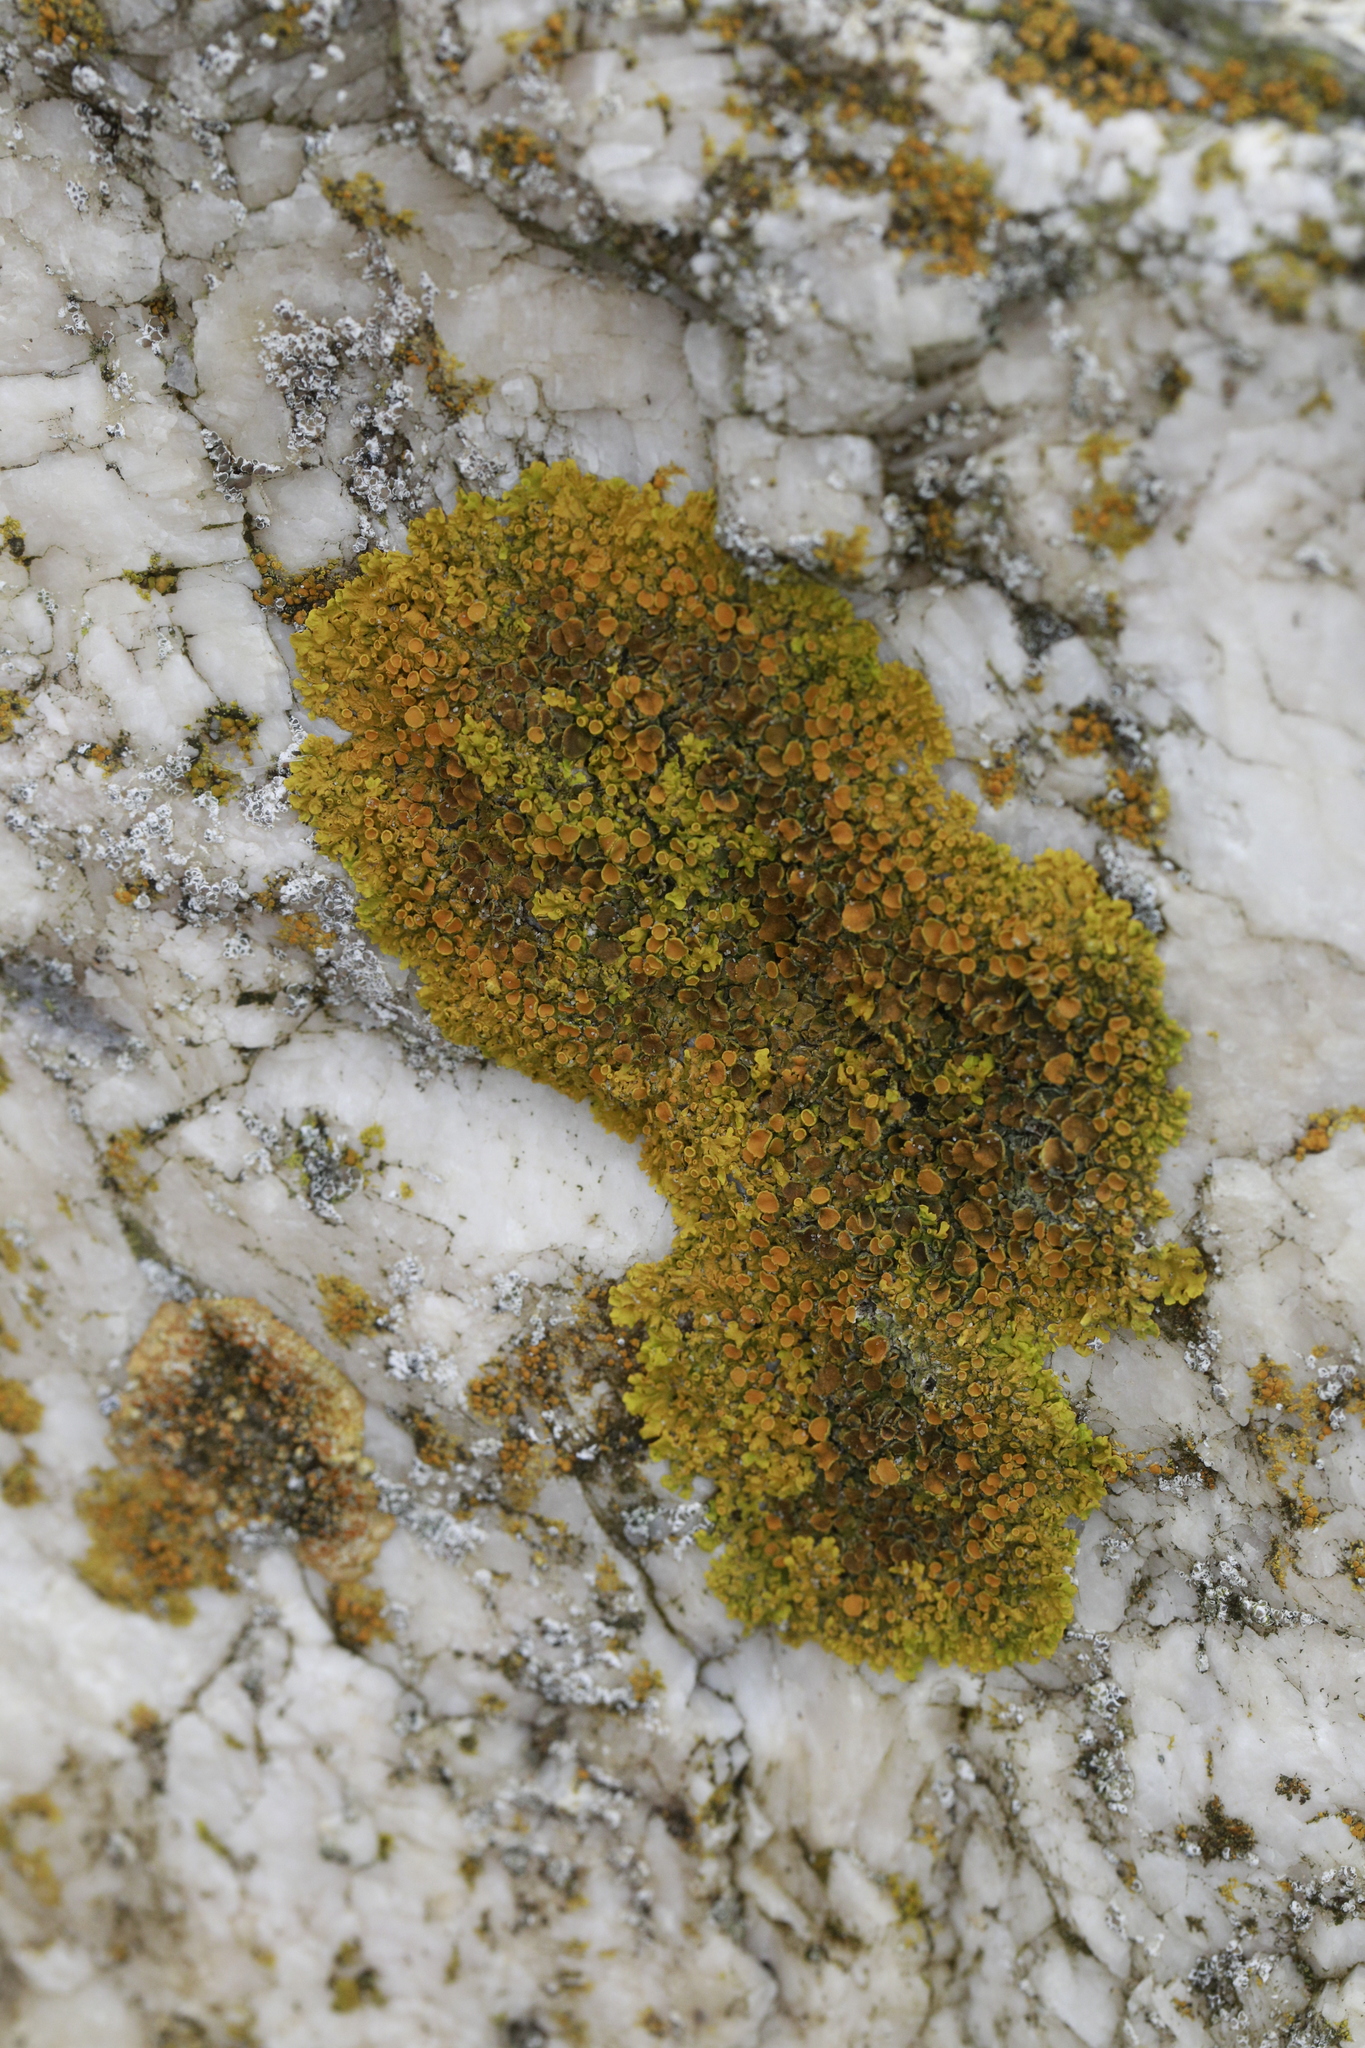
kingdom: Fungi
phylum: Ascomycota
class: Lecanoromycetes
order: Teloschistales
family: Teloschistaceae
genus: Xanthoria
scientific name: Xanthoria parietina
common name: Common orange lichen
